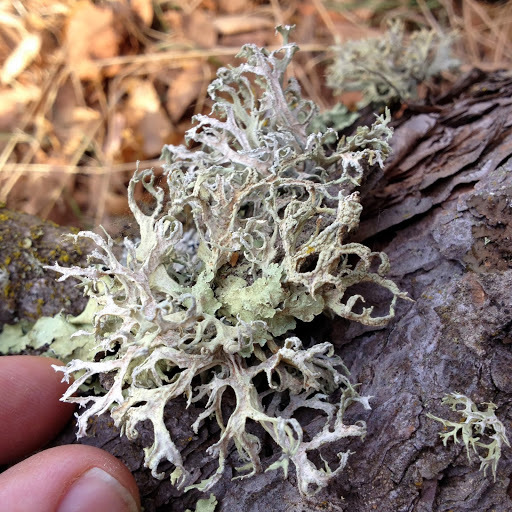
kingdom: Fungi
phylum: Ascomycota
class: Lecanoromycetes
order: Lecanorales
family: Parmeliaceae
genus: Evernia
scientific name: Evernia prunastri
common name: Oak moss
